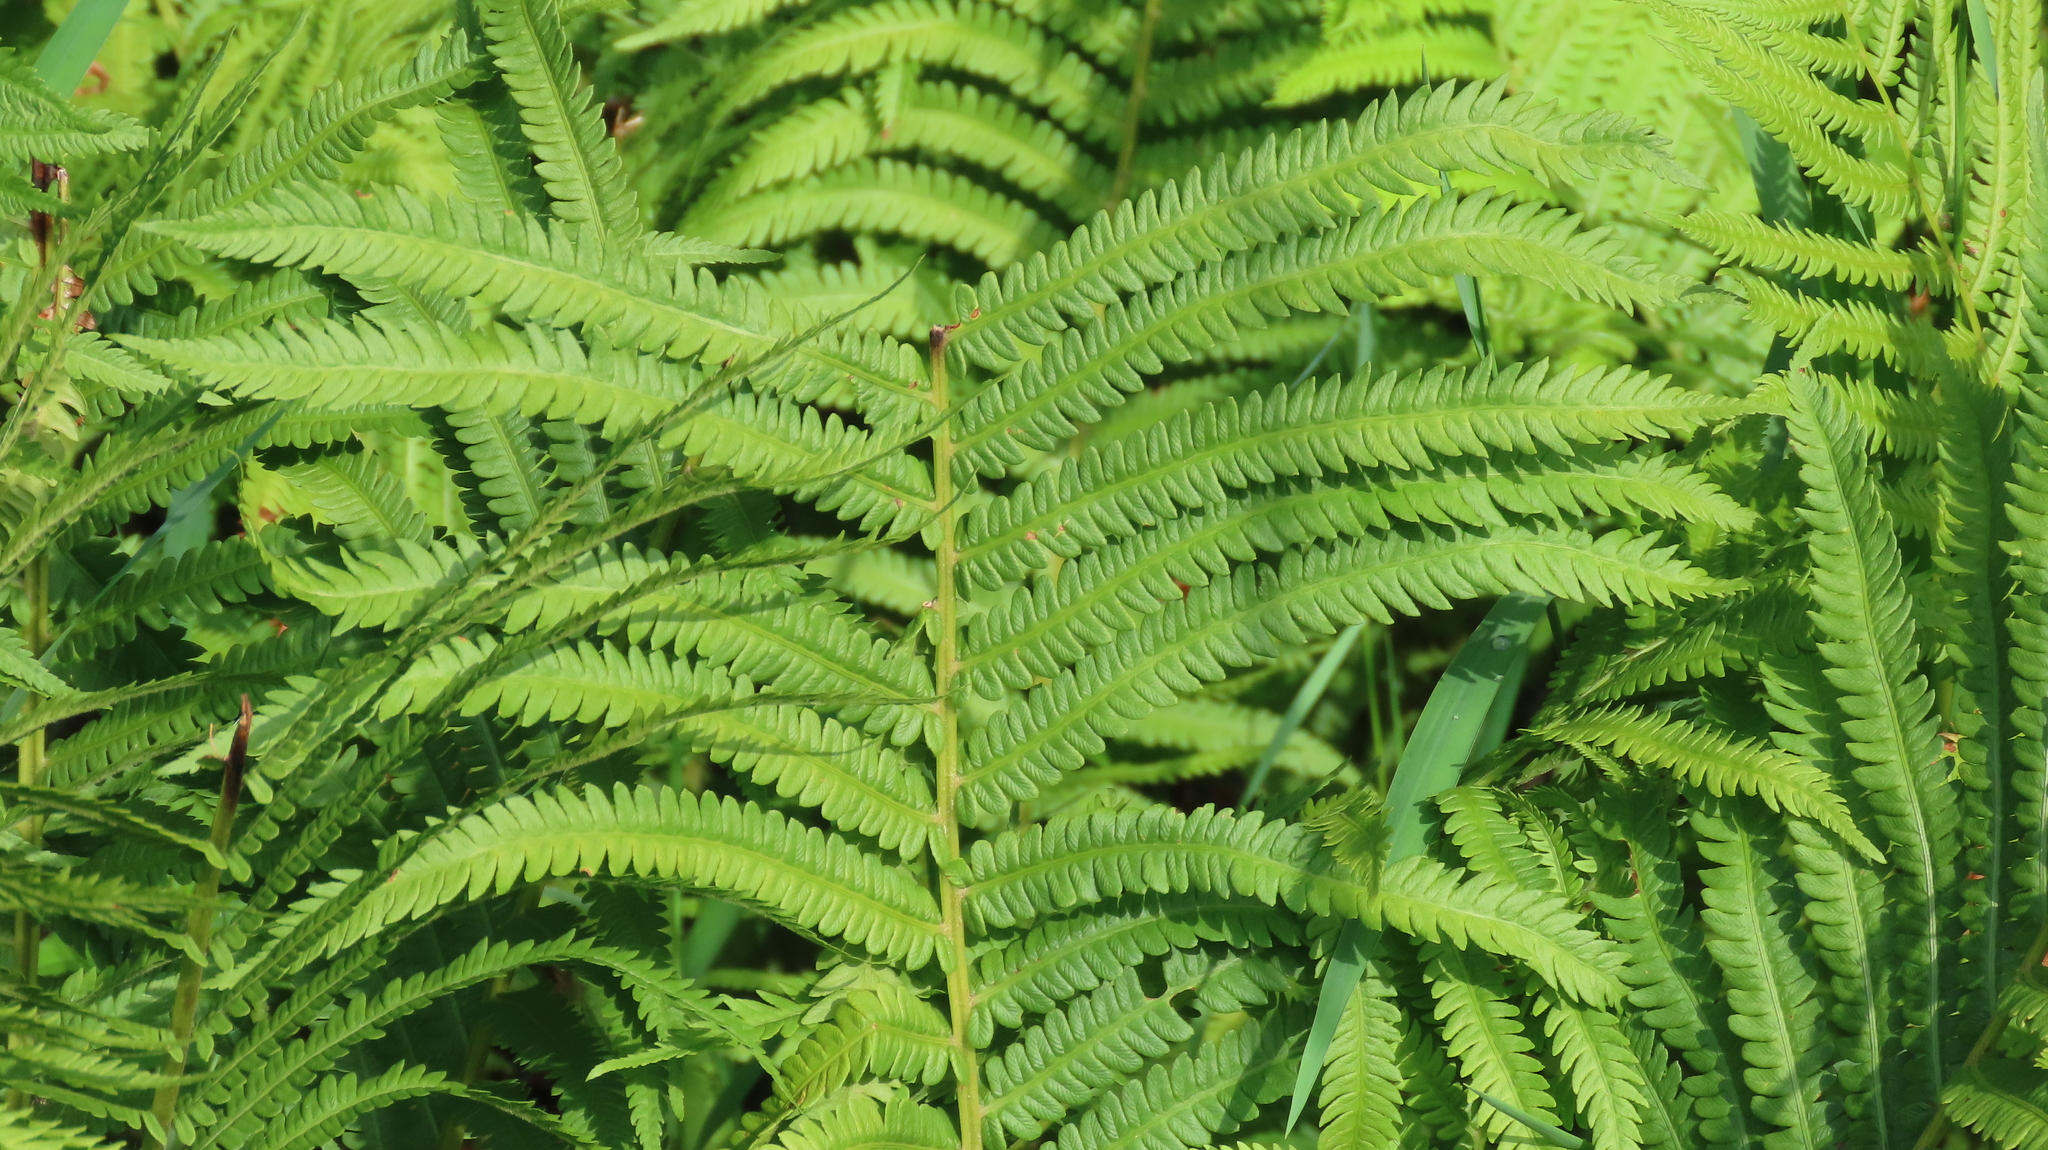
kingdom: Plantae
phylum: Tracheophyta
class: Polypodiopsida
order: Polypodiales
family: Onocleaceae
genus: Matteuccia
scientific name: Matteuccia struthiopteris
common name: Ostrich fern
